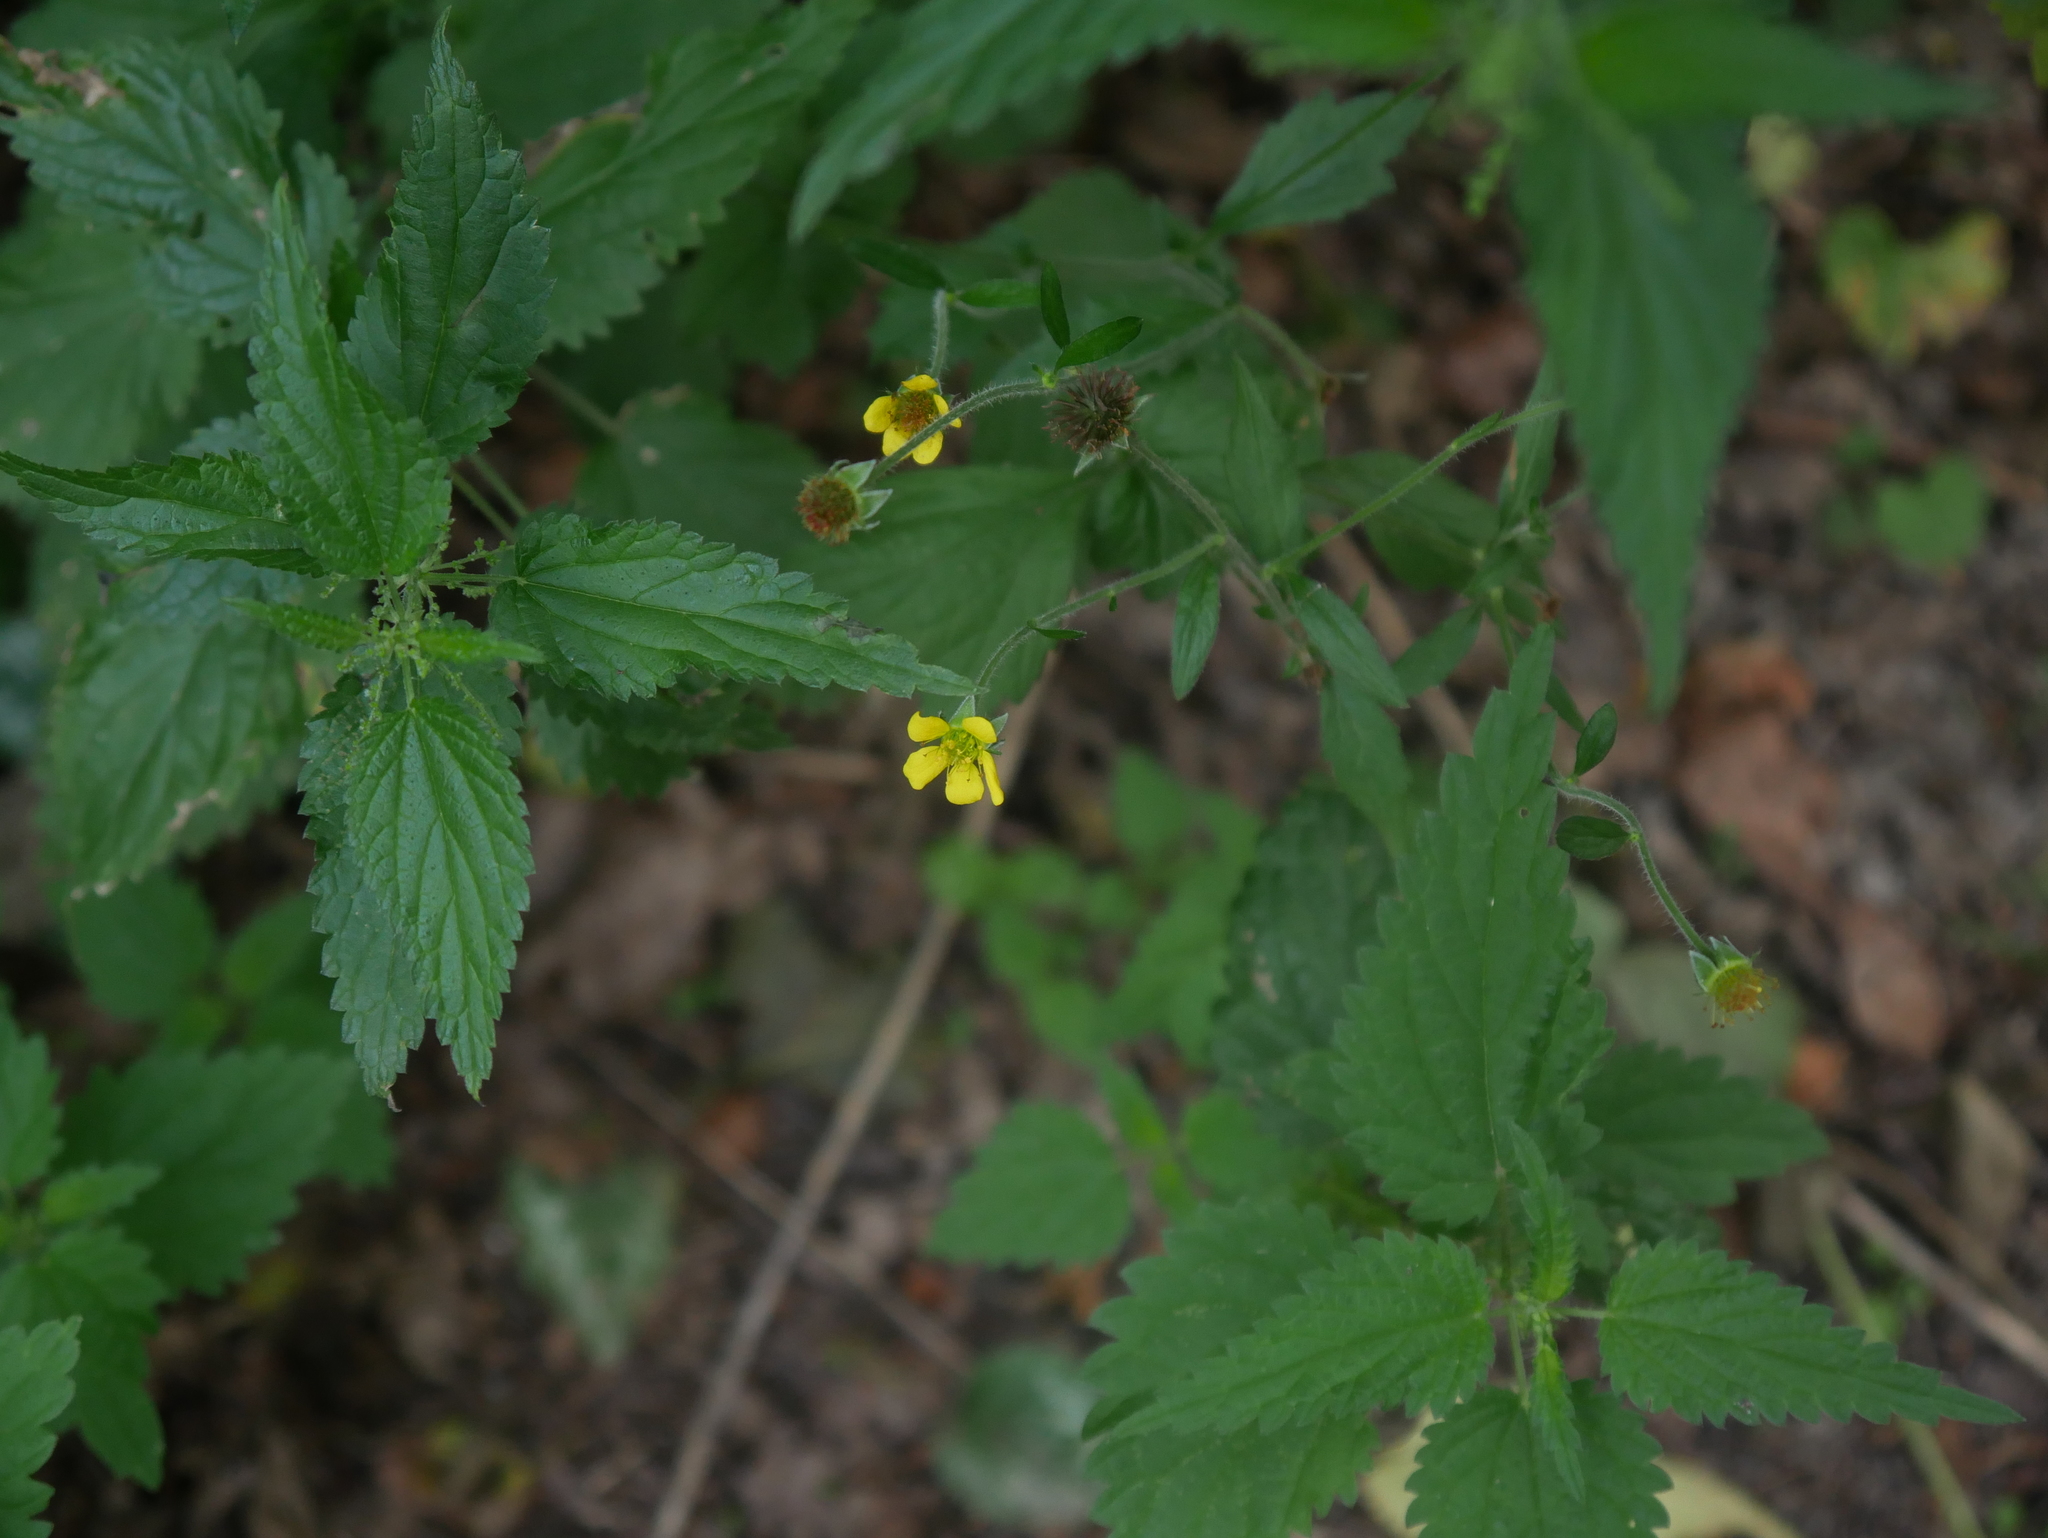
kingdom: Plantae
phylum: Tracheophyta
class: Magnoliopsida
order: Rosales
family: Rosaceae
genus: Geum
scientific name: Geum urbanum
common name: Wood avens
